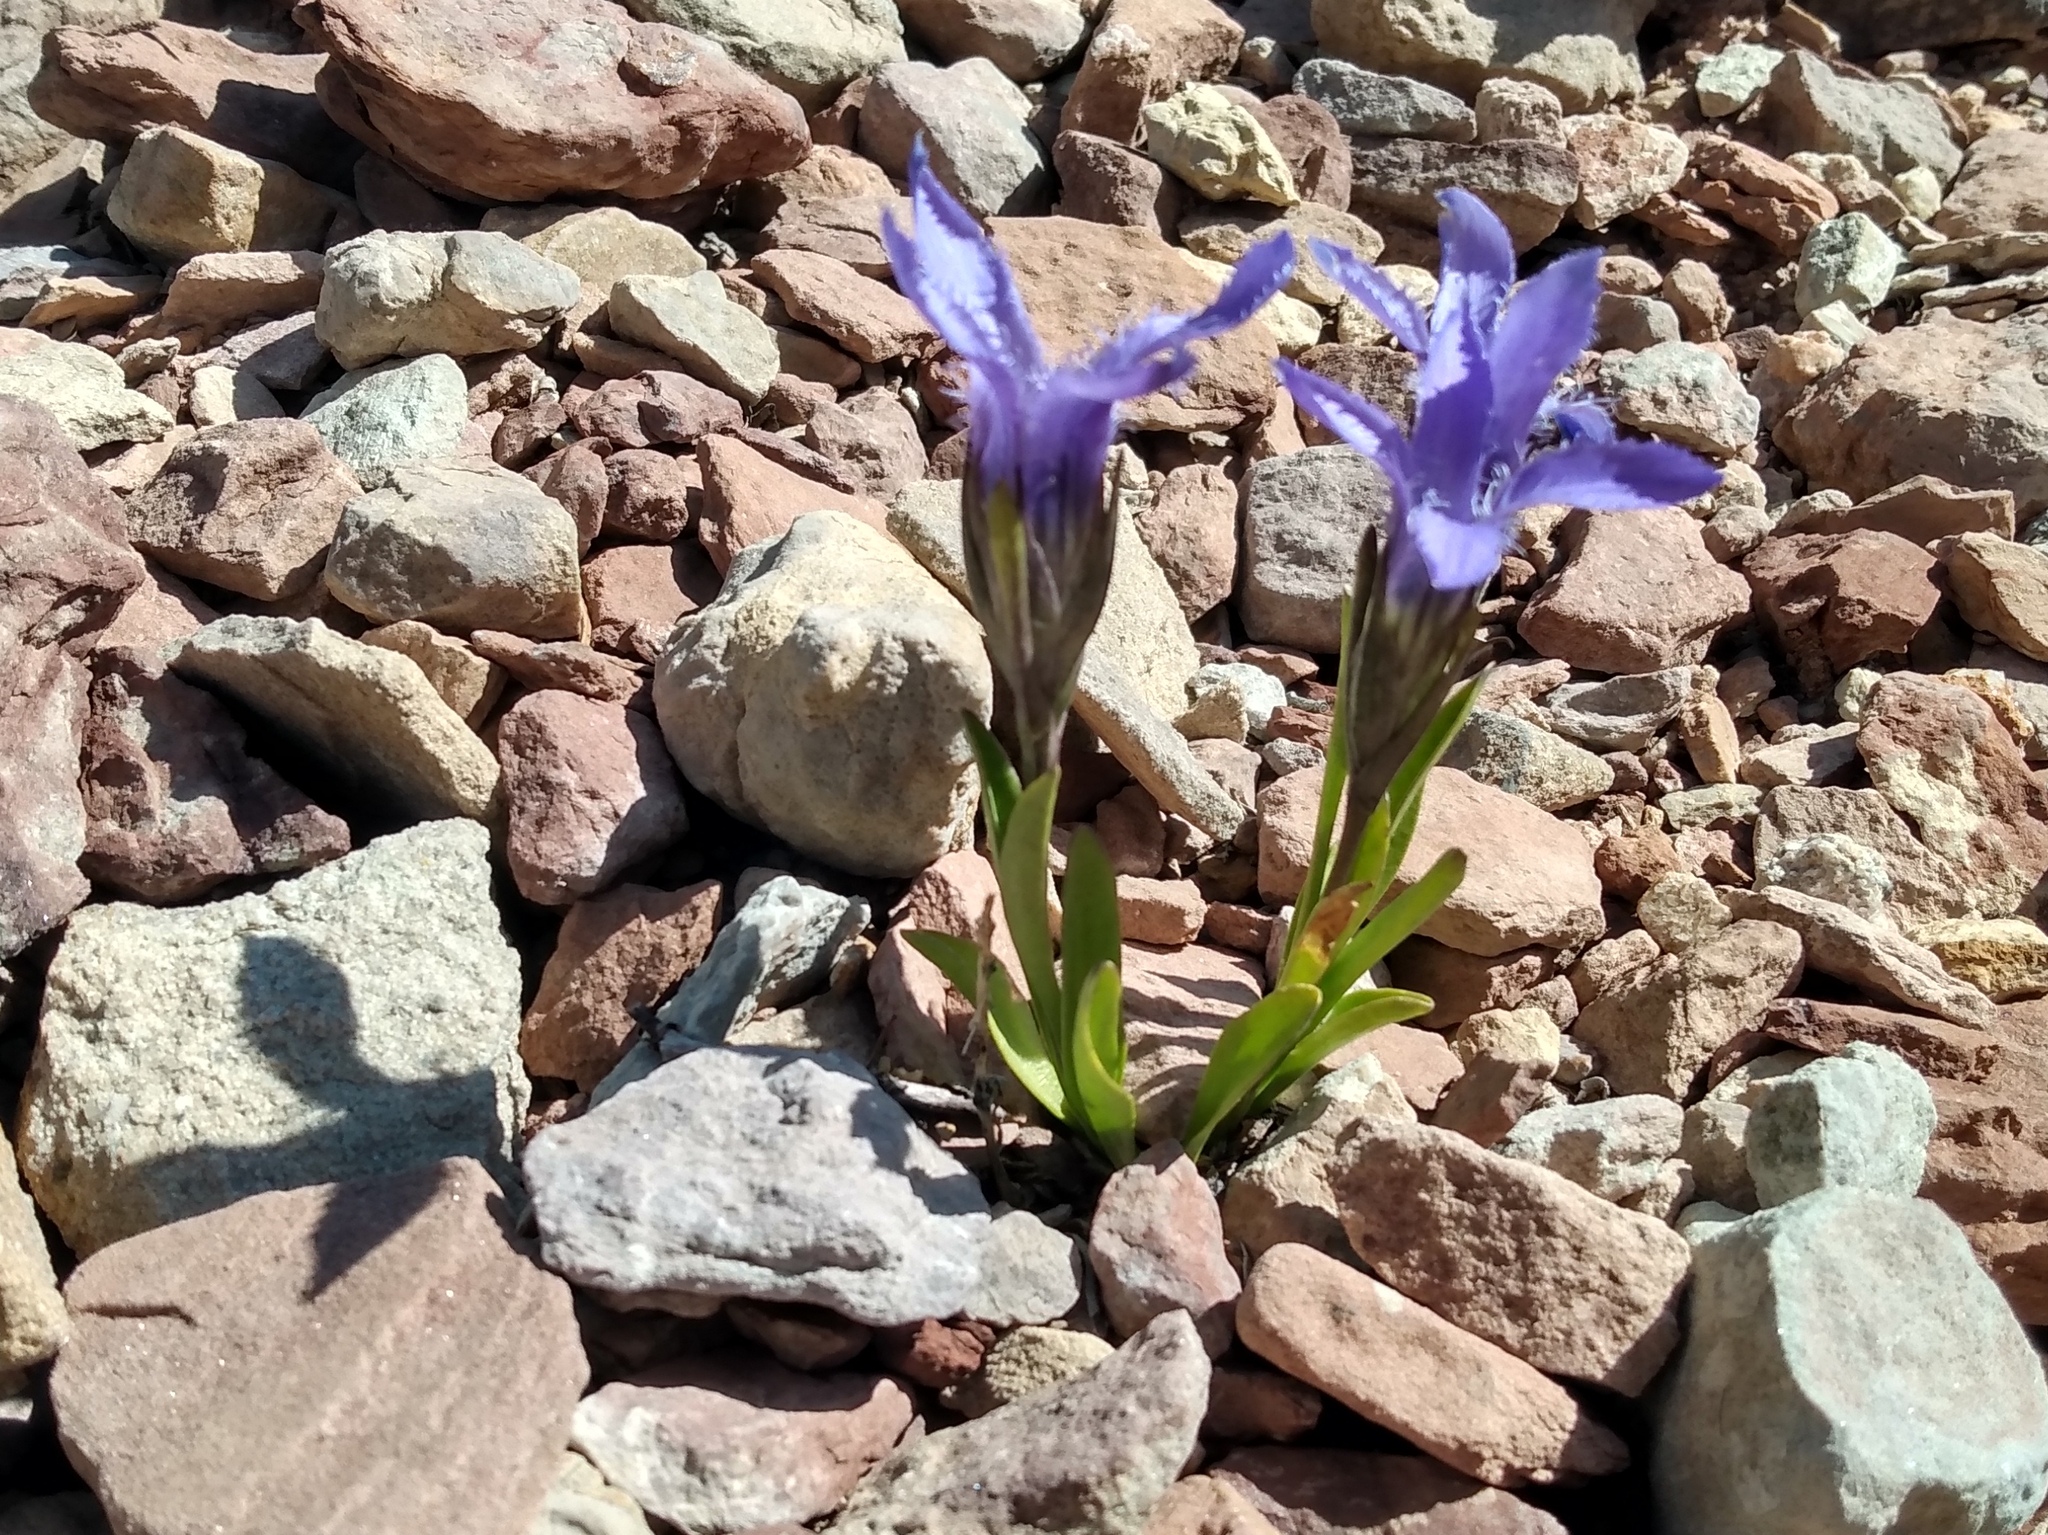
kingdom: Plantae
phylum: Tracheophyta
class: Magnoliopsida
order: Gentianales
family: Gentianaceae
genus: Gentianopsis
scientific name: Gentianopsis barbellata
